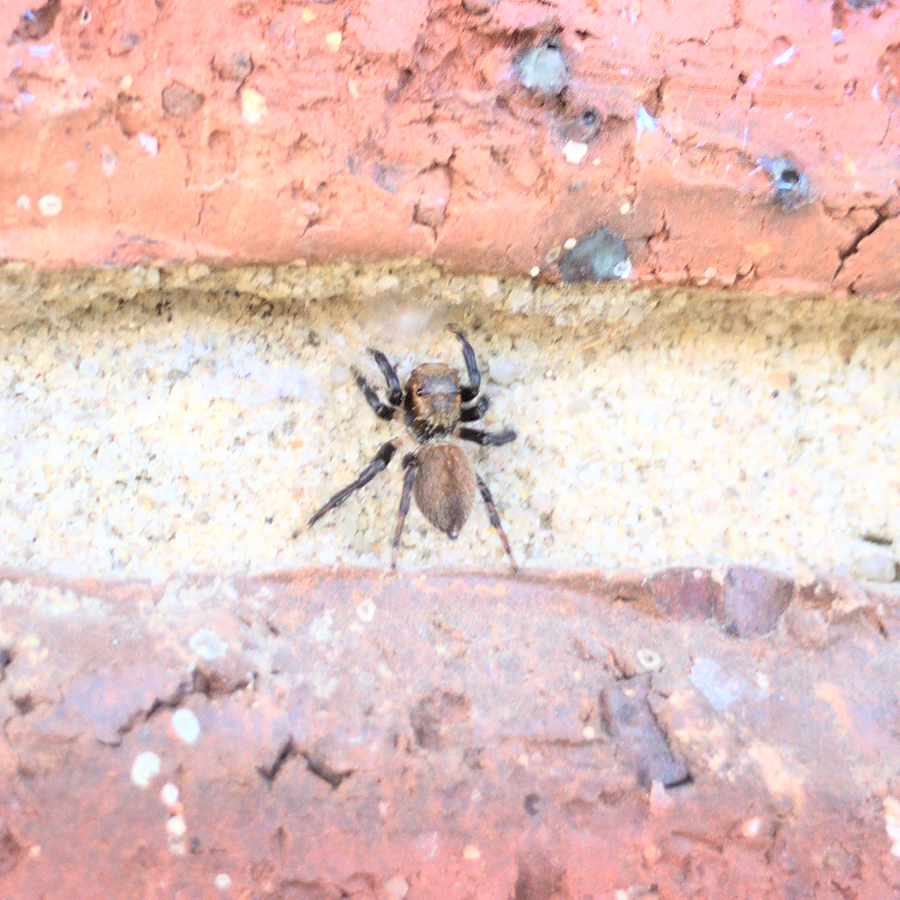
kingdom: Animalia
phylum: Arthropoda
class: Arachnida
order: Araneae
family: Salticidae
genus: Maratus
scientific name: Maratus griseus
